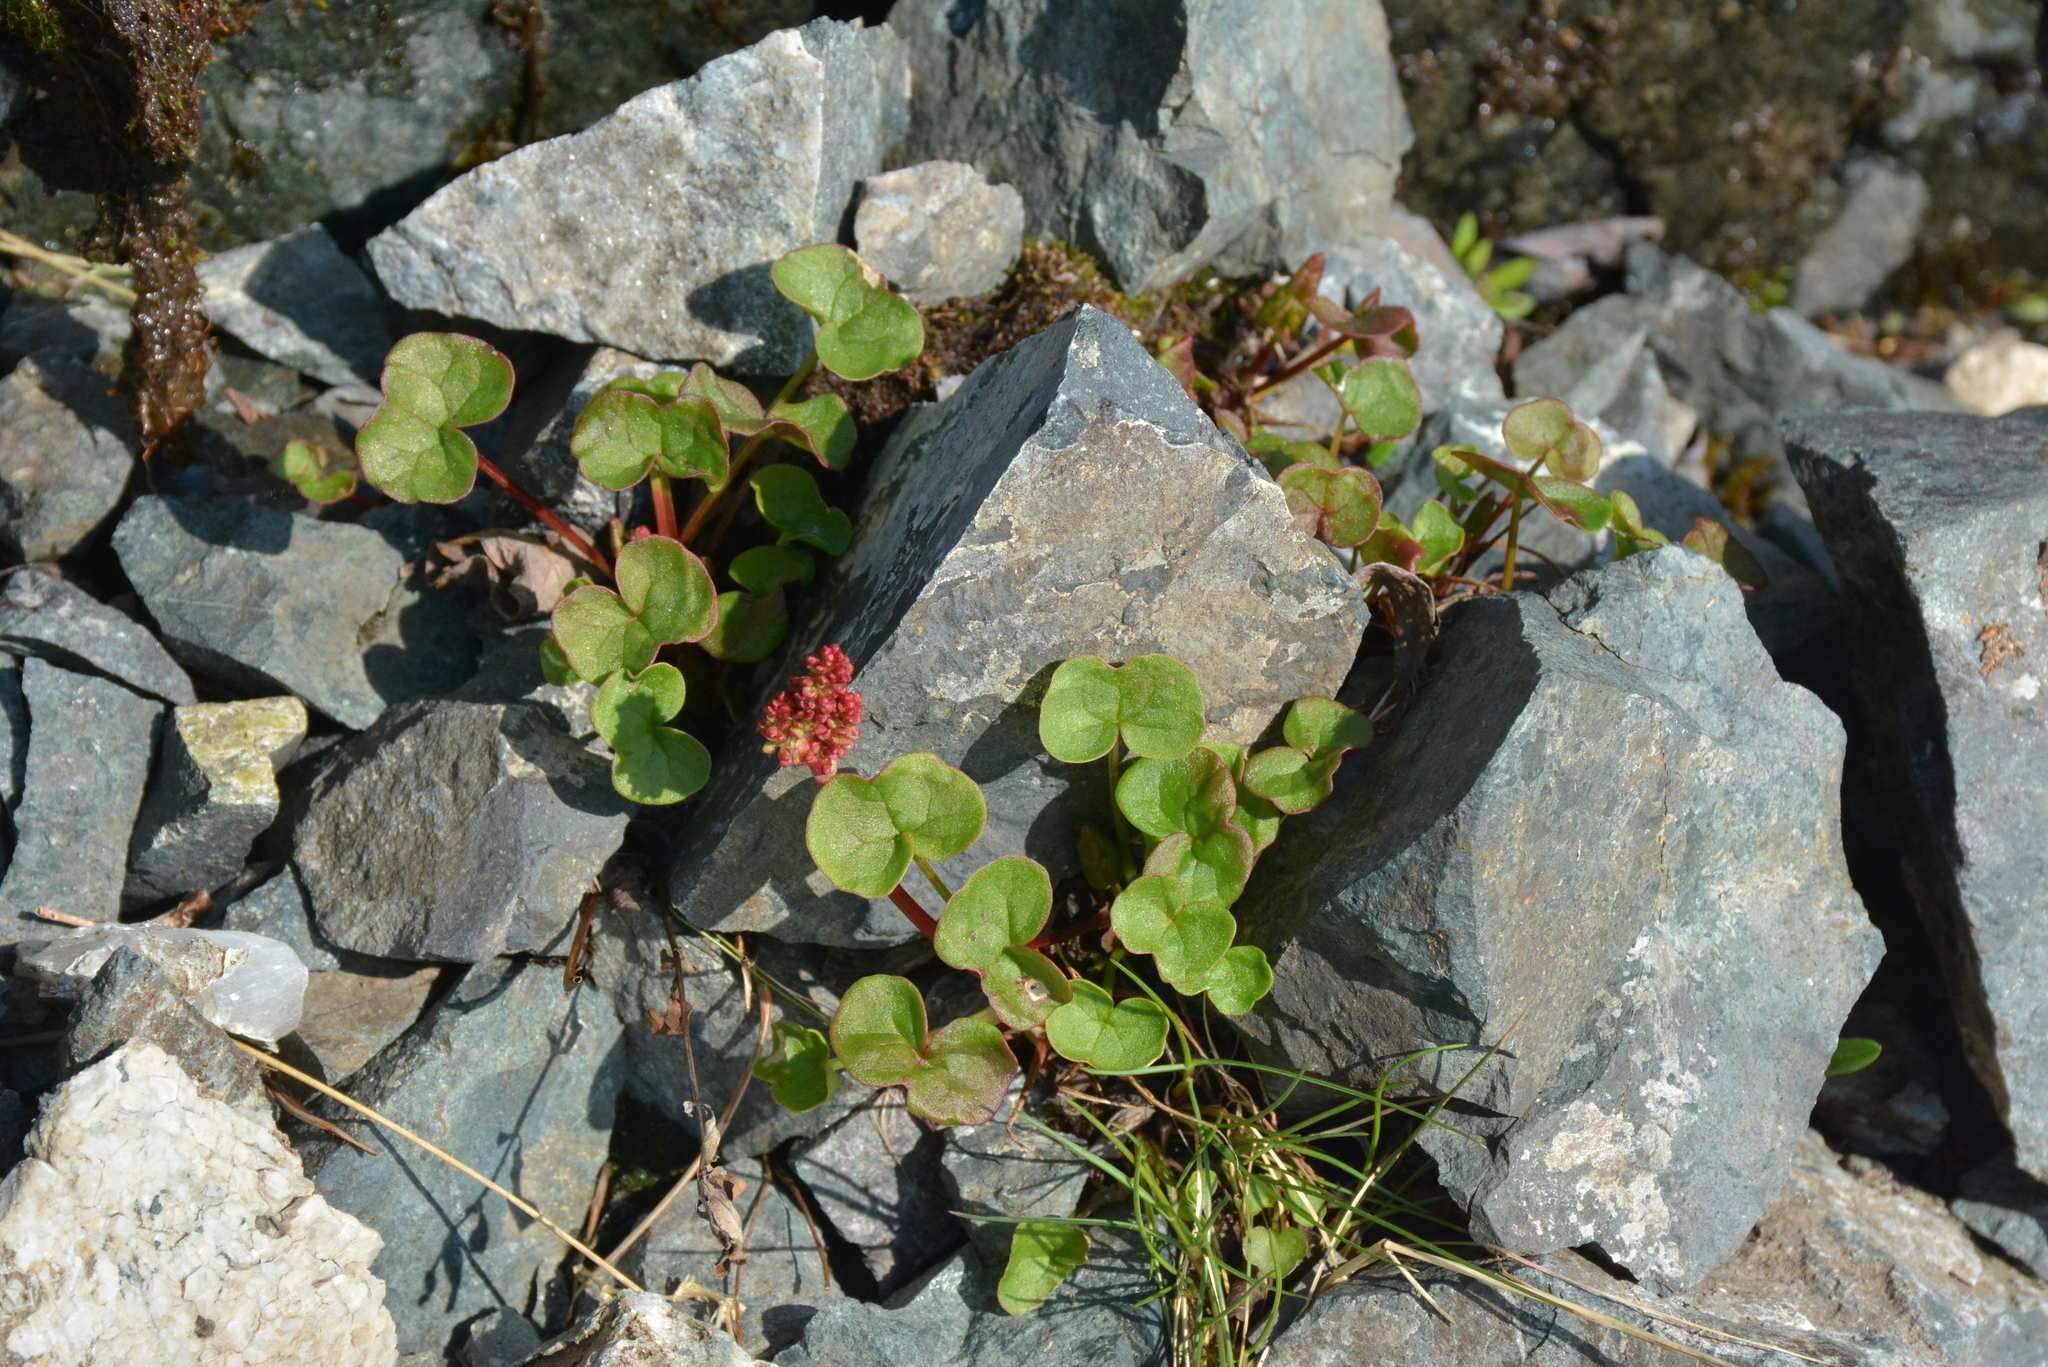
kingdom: Plantae
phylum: Tracheophyta
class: Magnoliopsida
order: Caryophyllales
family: Polygonaceae
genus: Oxyria
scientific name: Oxyria digyna
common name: Alpine mountain-sorrel
